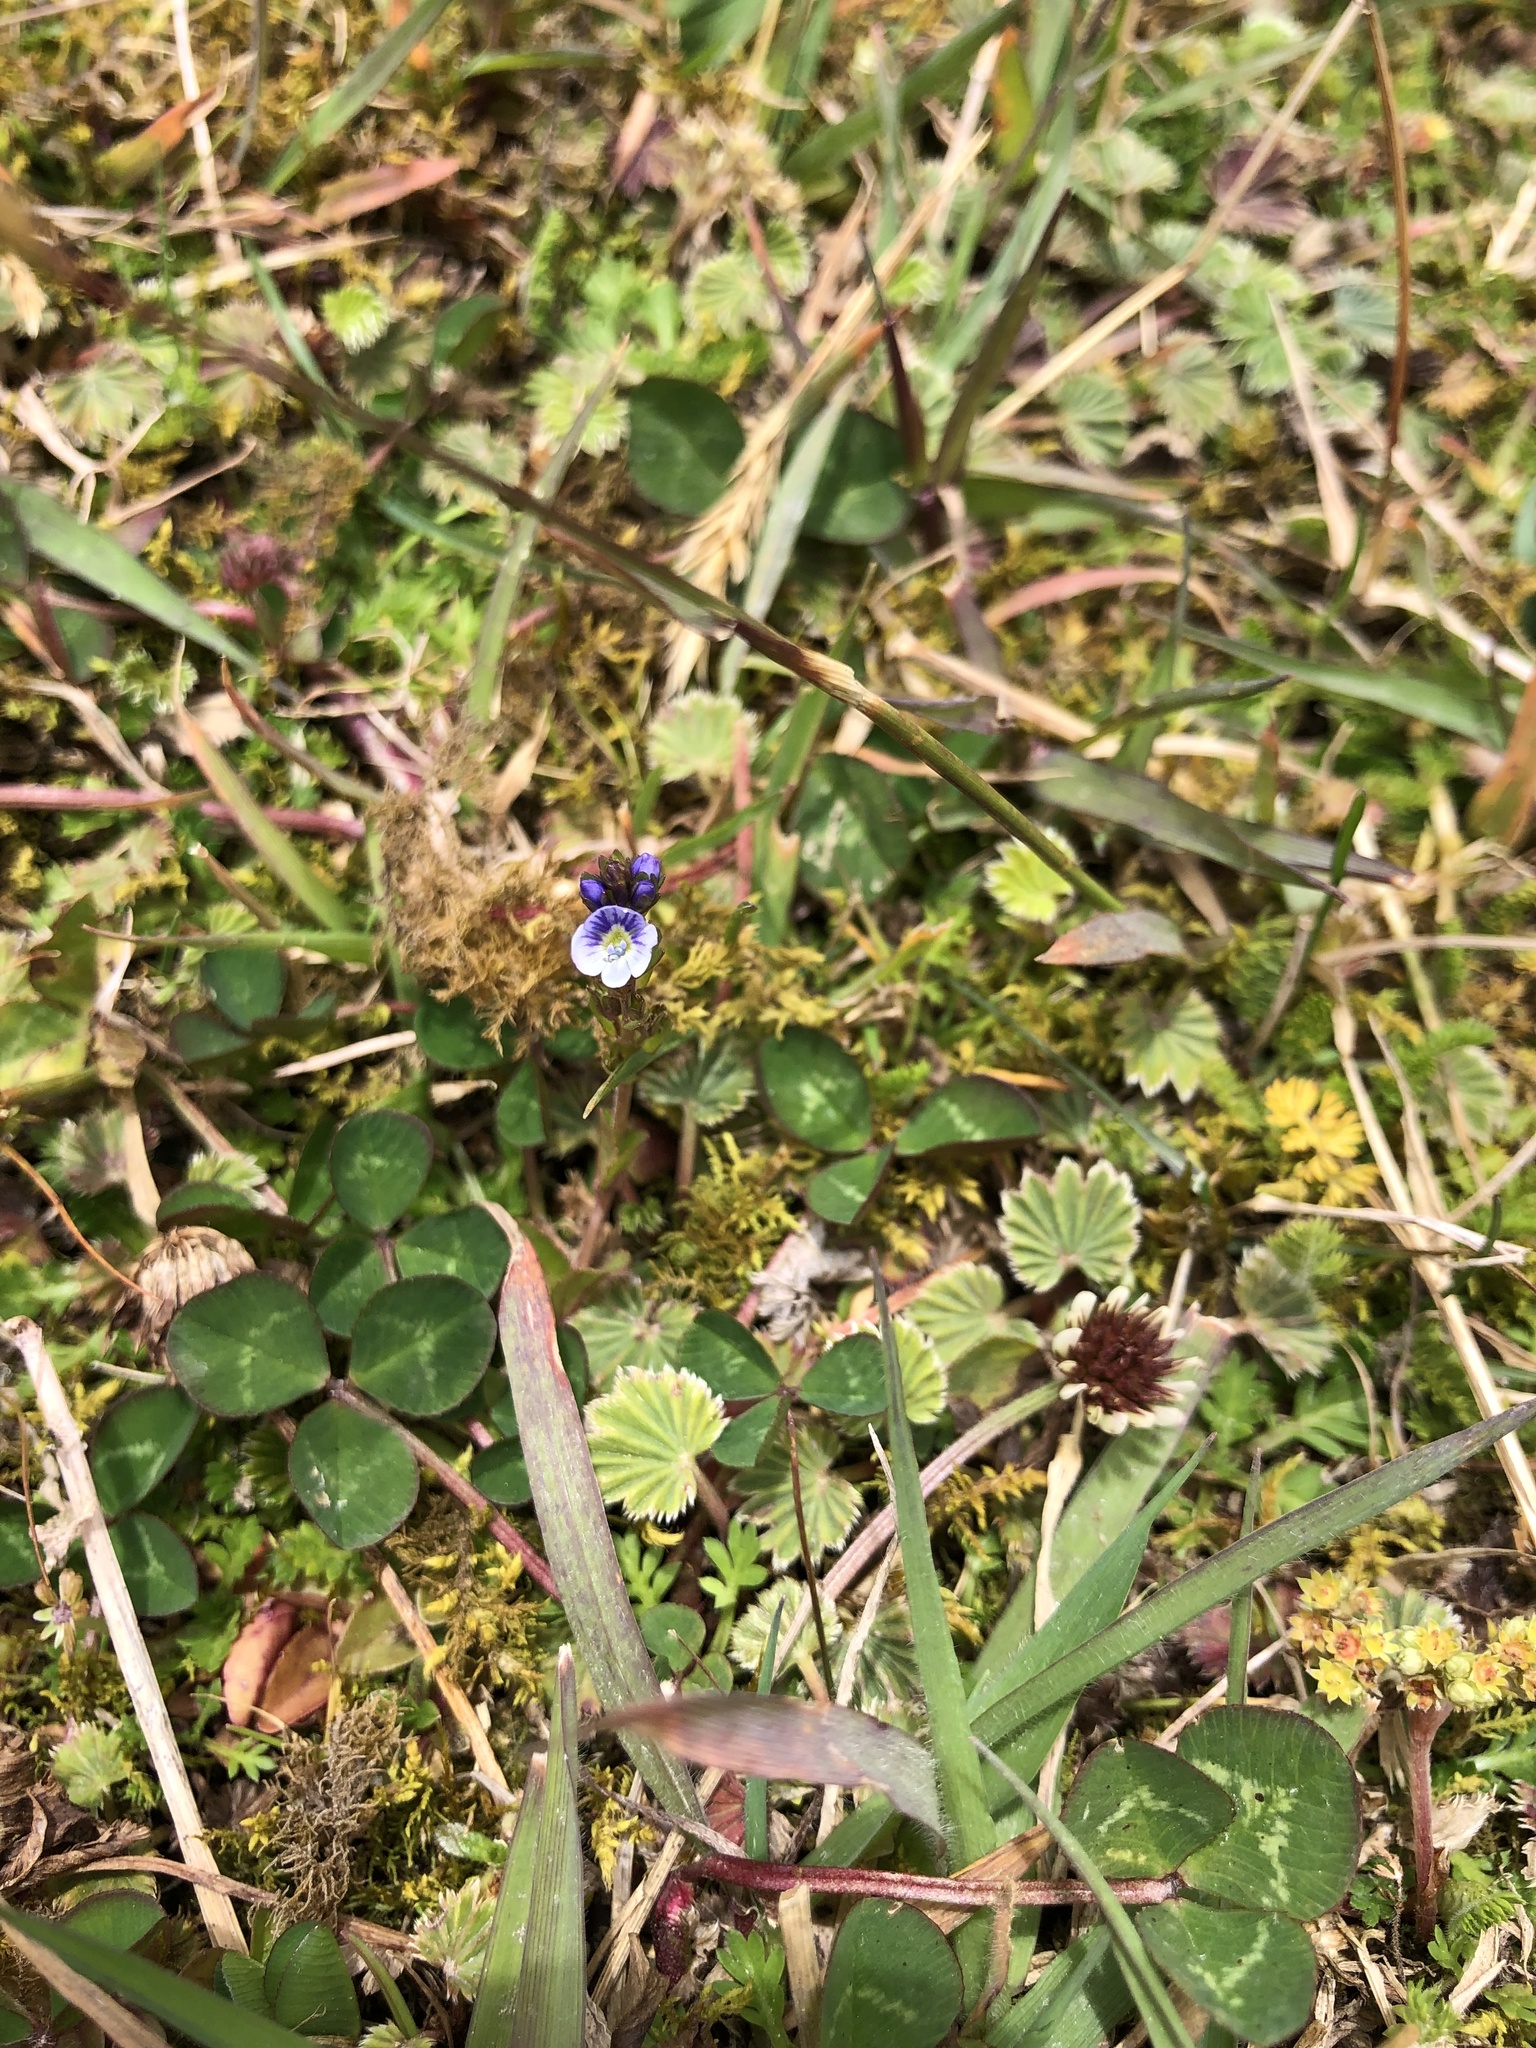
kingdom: Plantae
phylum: Tracheophyta
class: Magnoliopsida
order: Lamiales
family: Plantaginaceae
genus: Veronica
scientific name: Veronica serpyllifolia
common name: Thyme-leaved speedwell
